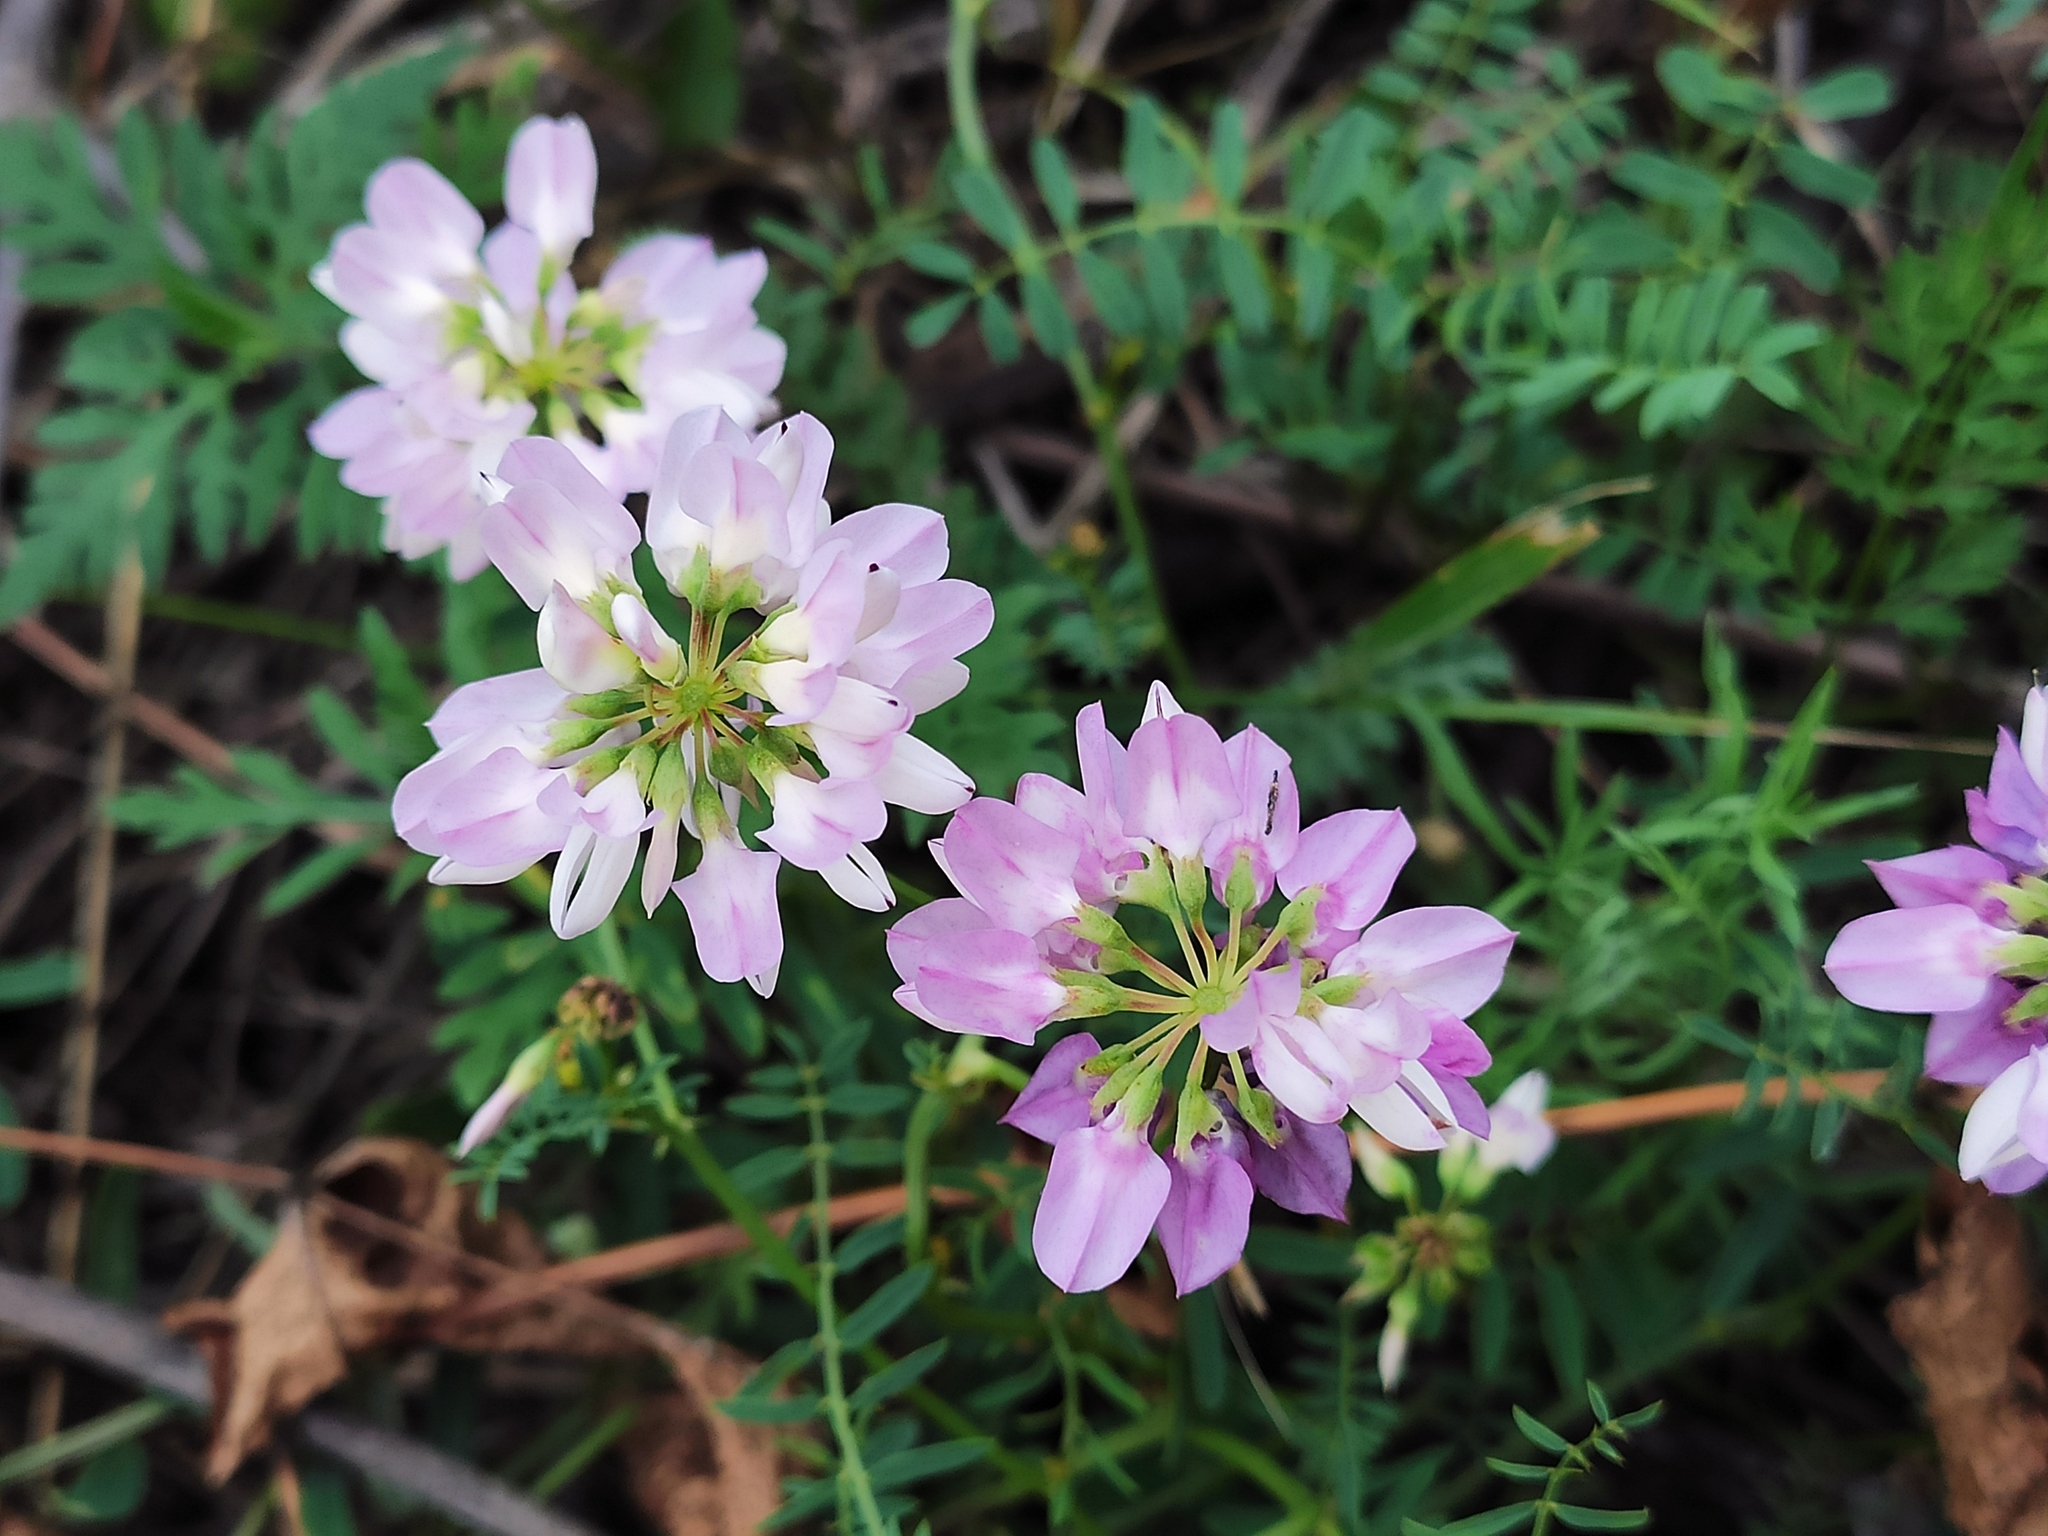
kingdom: Plantae
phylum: Tracheophyta
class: Magnoliopsida
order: Fabales
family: Fabaceae
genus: Coronilla
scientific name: Coronilla varia
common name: Crownvetch
